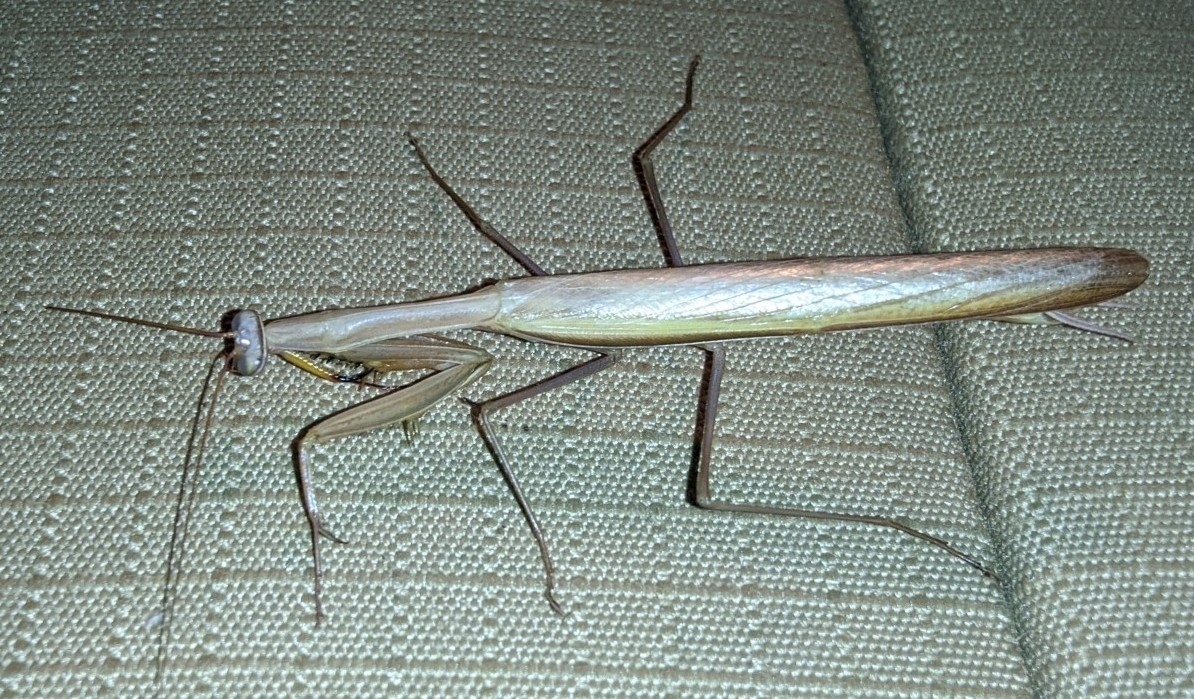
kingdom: Animalia
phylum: Arthropoda
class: Insecta
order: Mantodea
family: Mantidae
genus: Mantis
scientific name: Mantis religiosa
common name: Praying mantis
